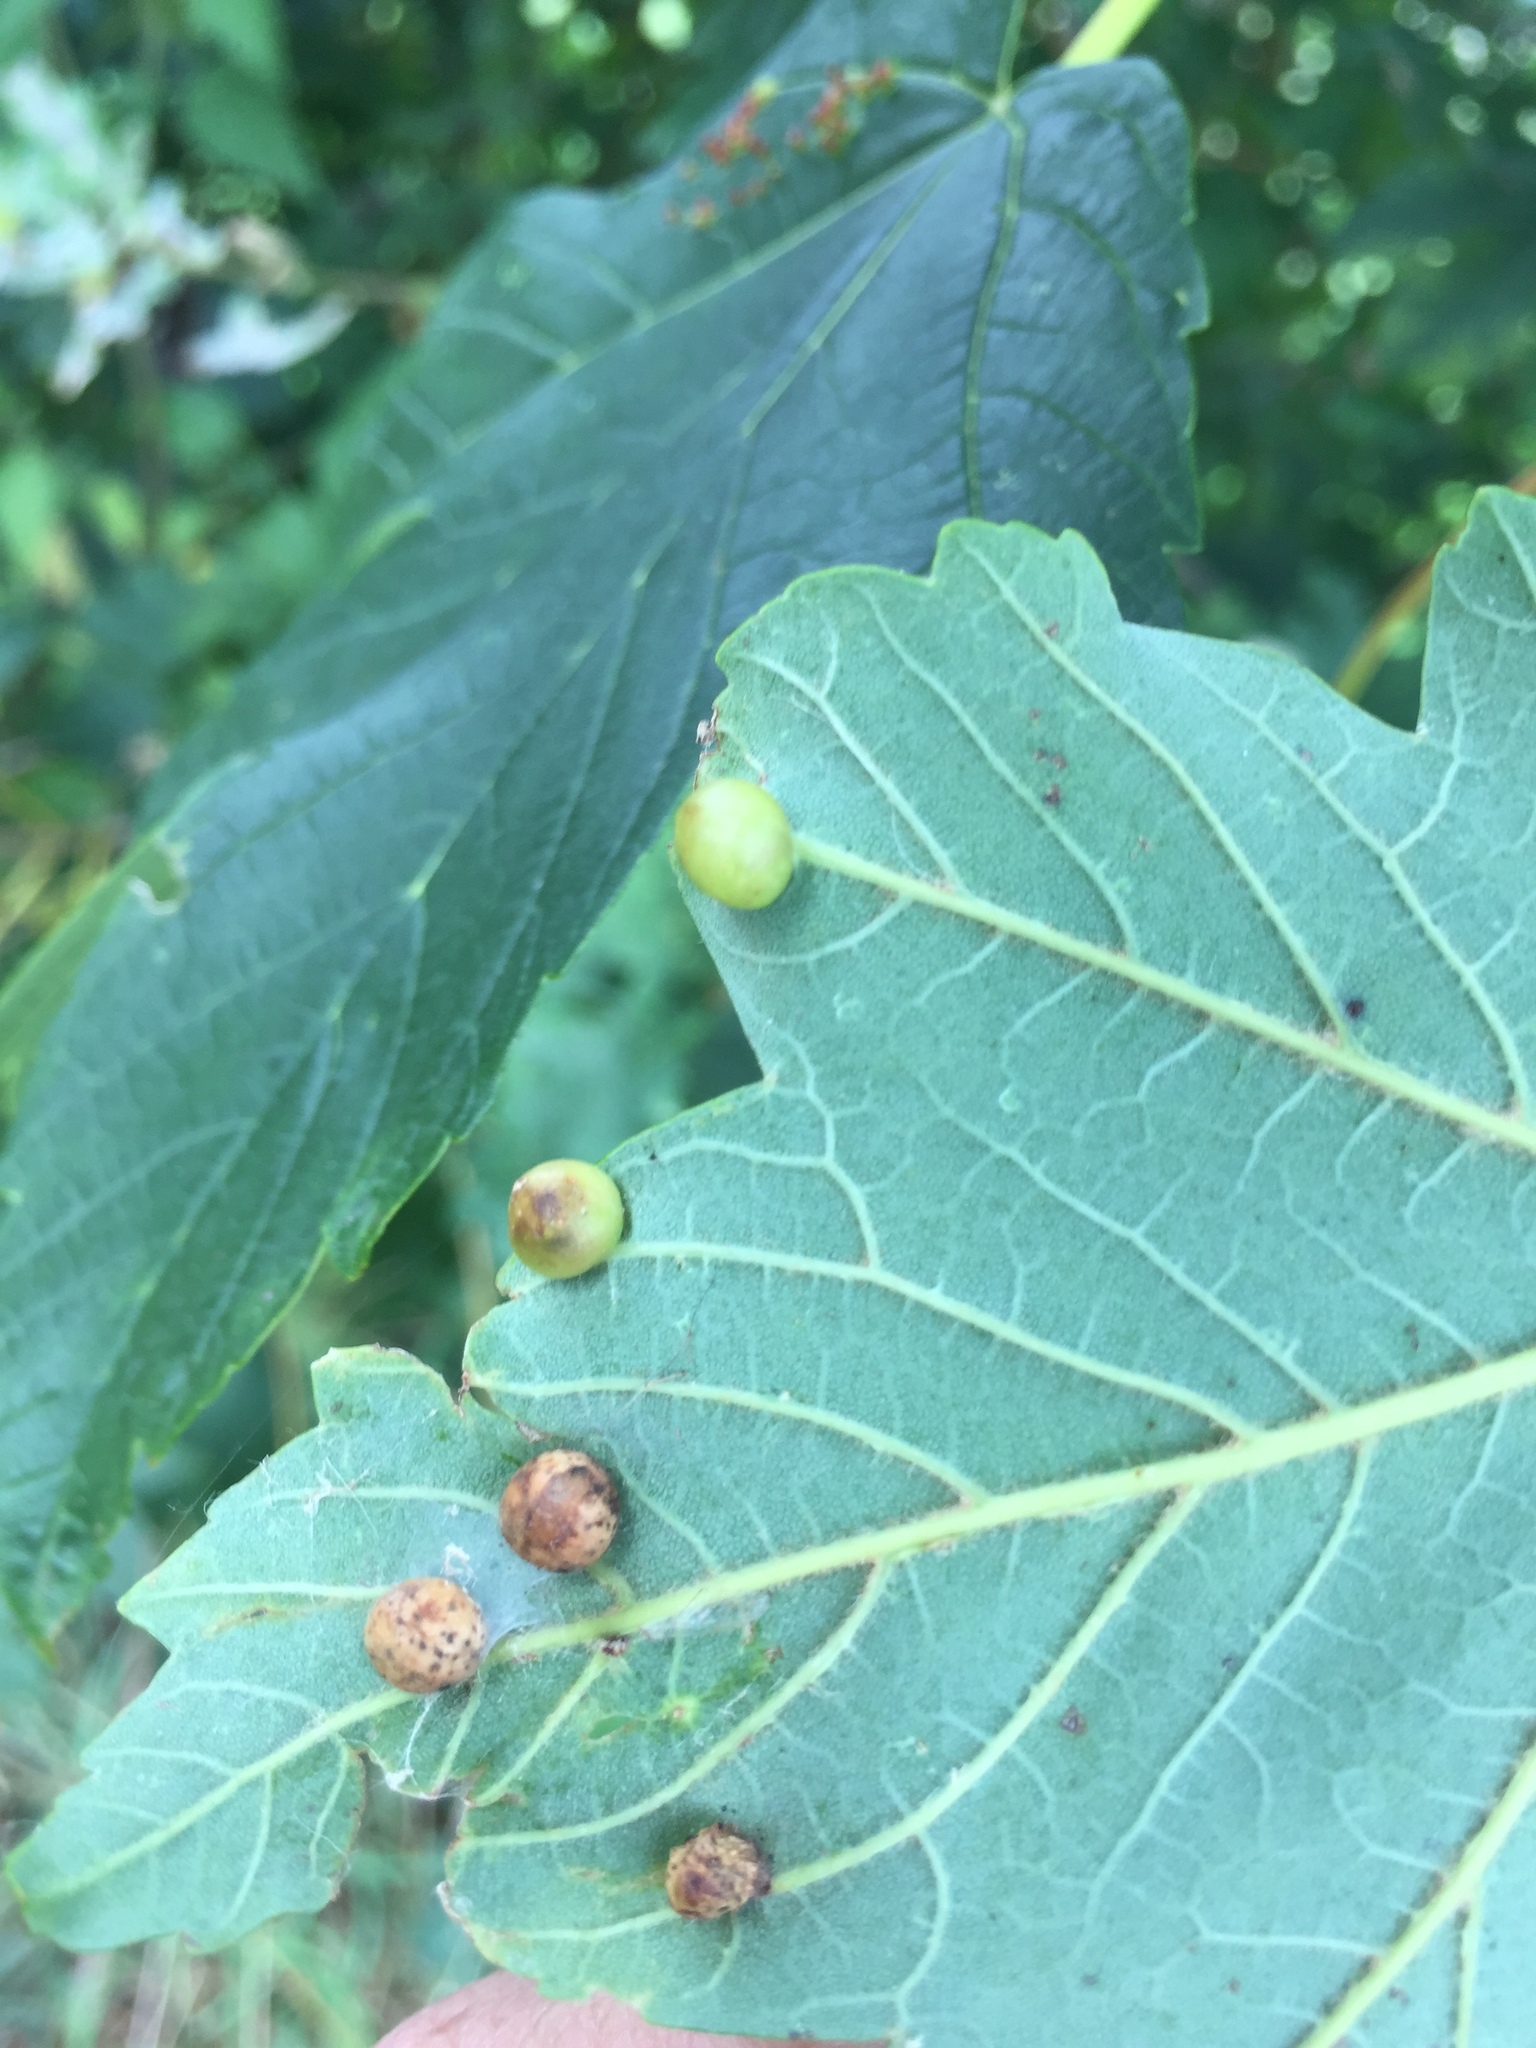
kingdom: Animalia
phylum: Arthropoda
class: Insecta
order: Hymenoptera
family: Cynipidae
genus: Pediaspis
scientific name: Pediaspis aceris
